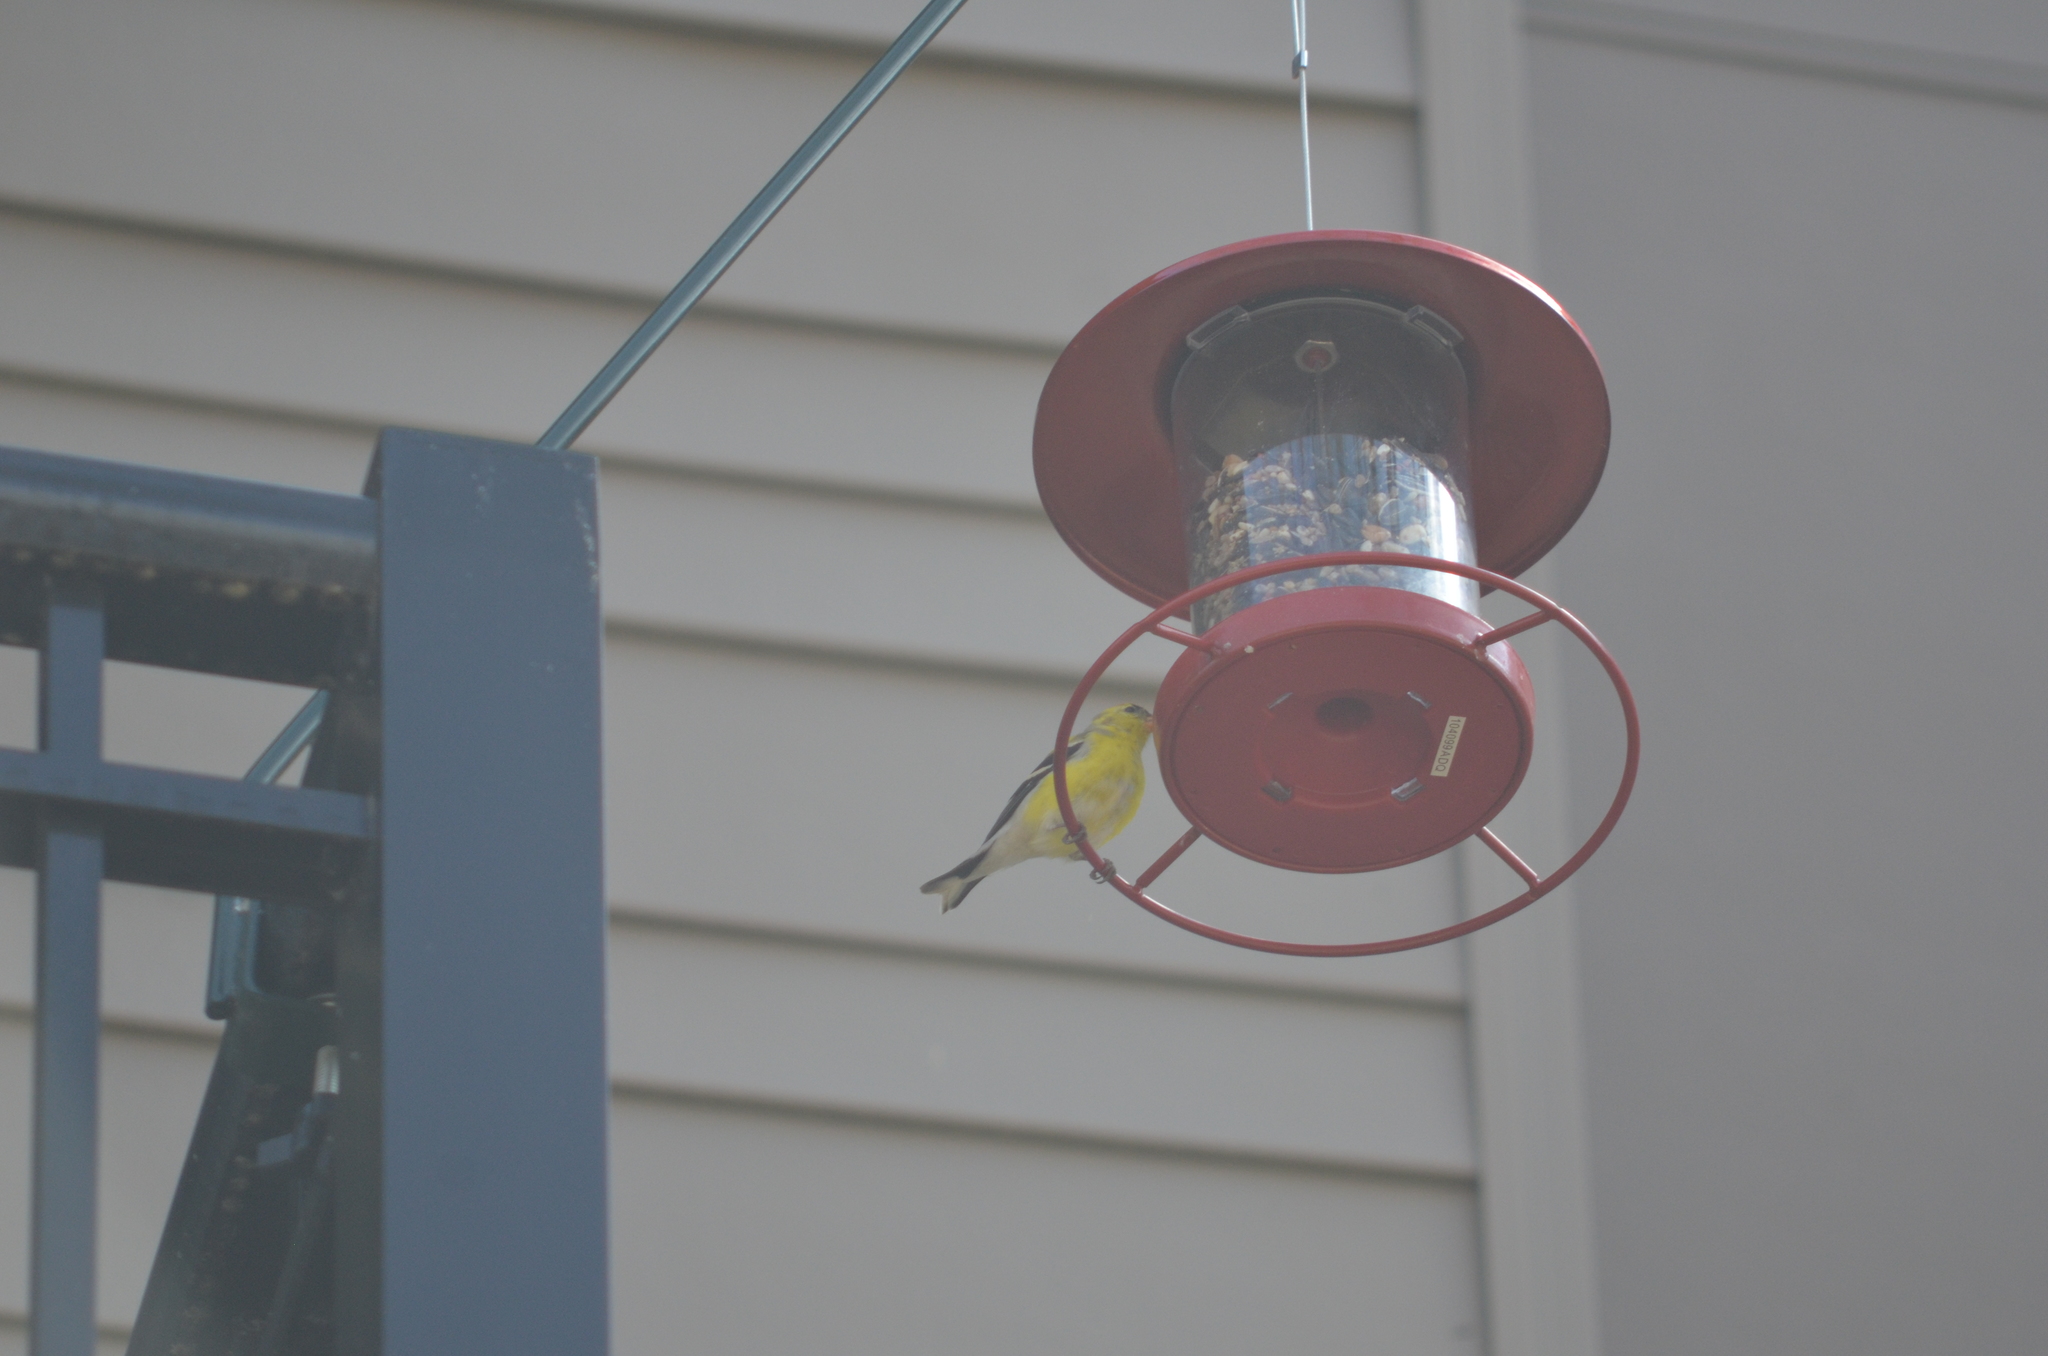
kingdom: Animalia
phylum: Chordata
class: Aves
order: Passeriformes
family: Fringillidae
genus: Spinus
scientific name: Spinus tristis
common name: American goldfinch
